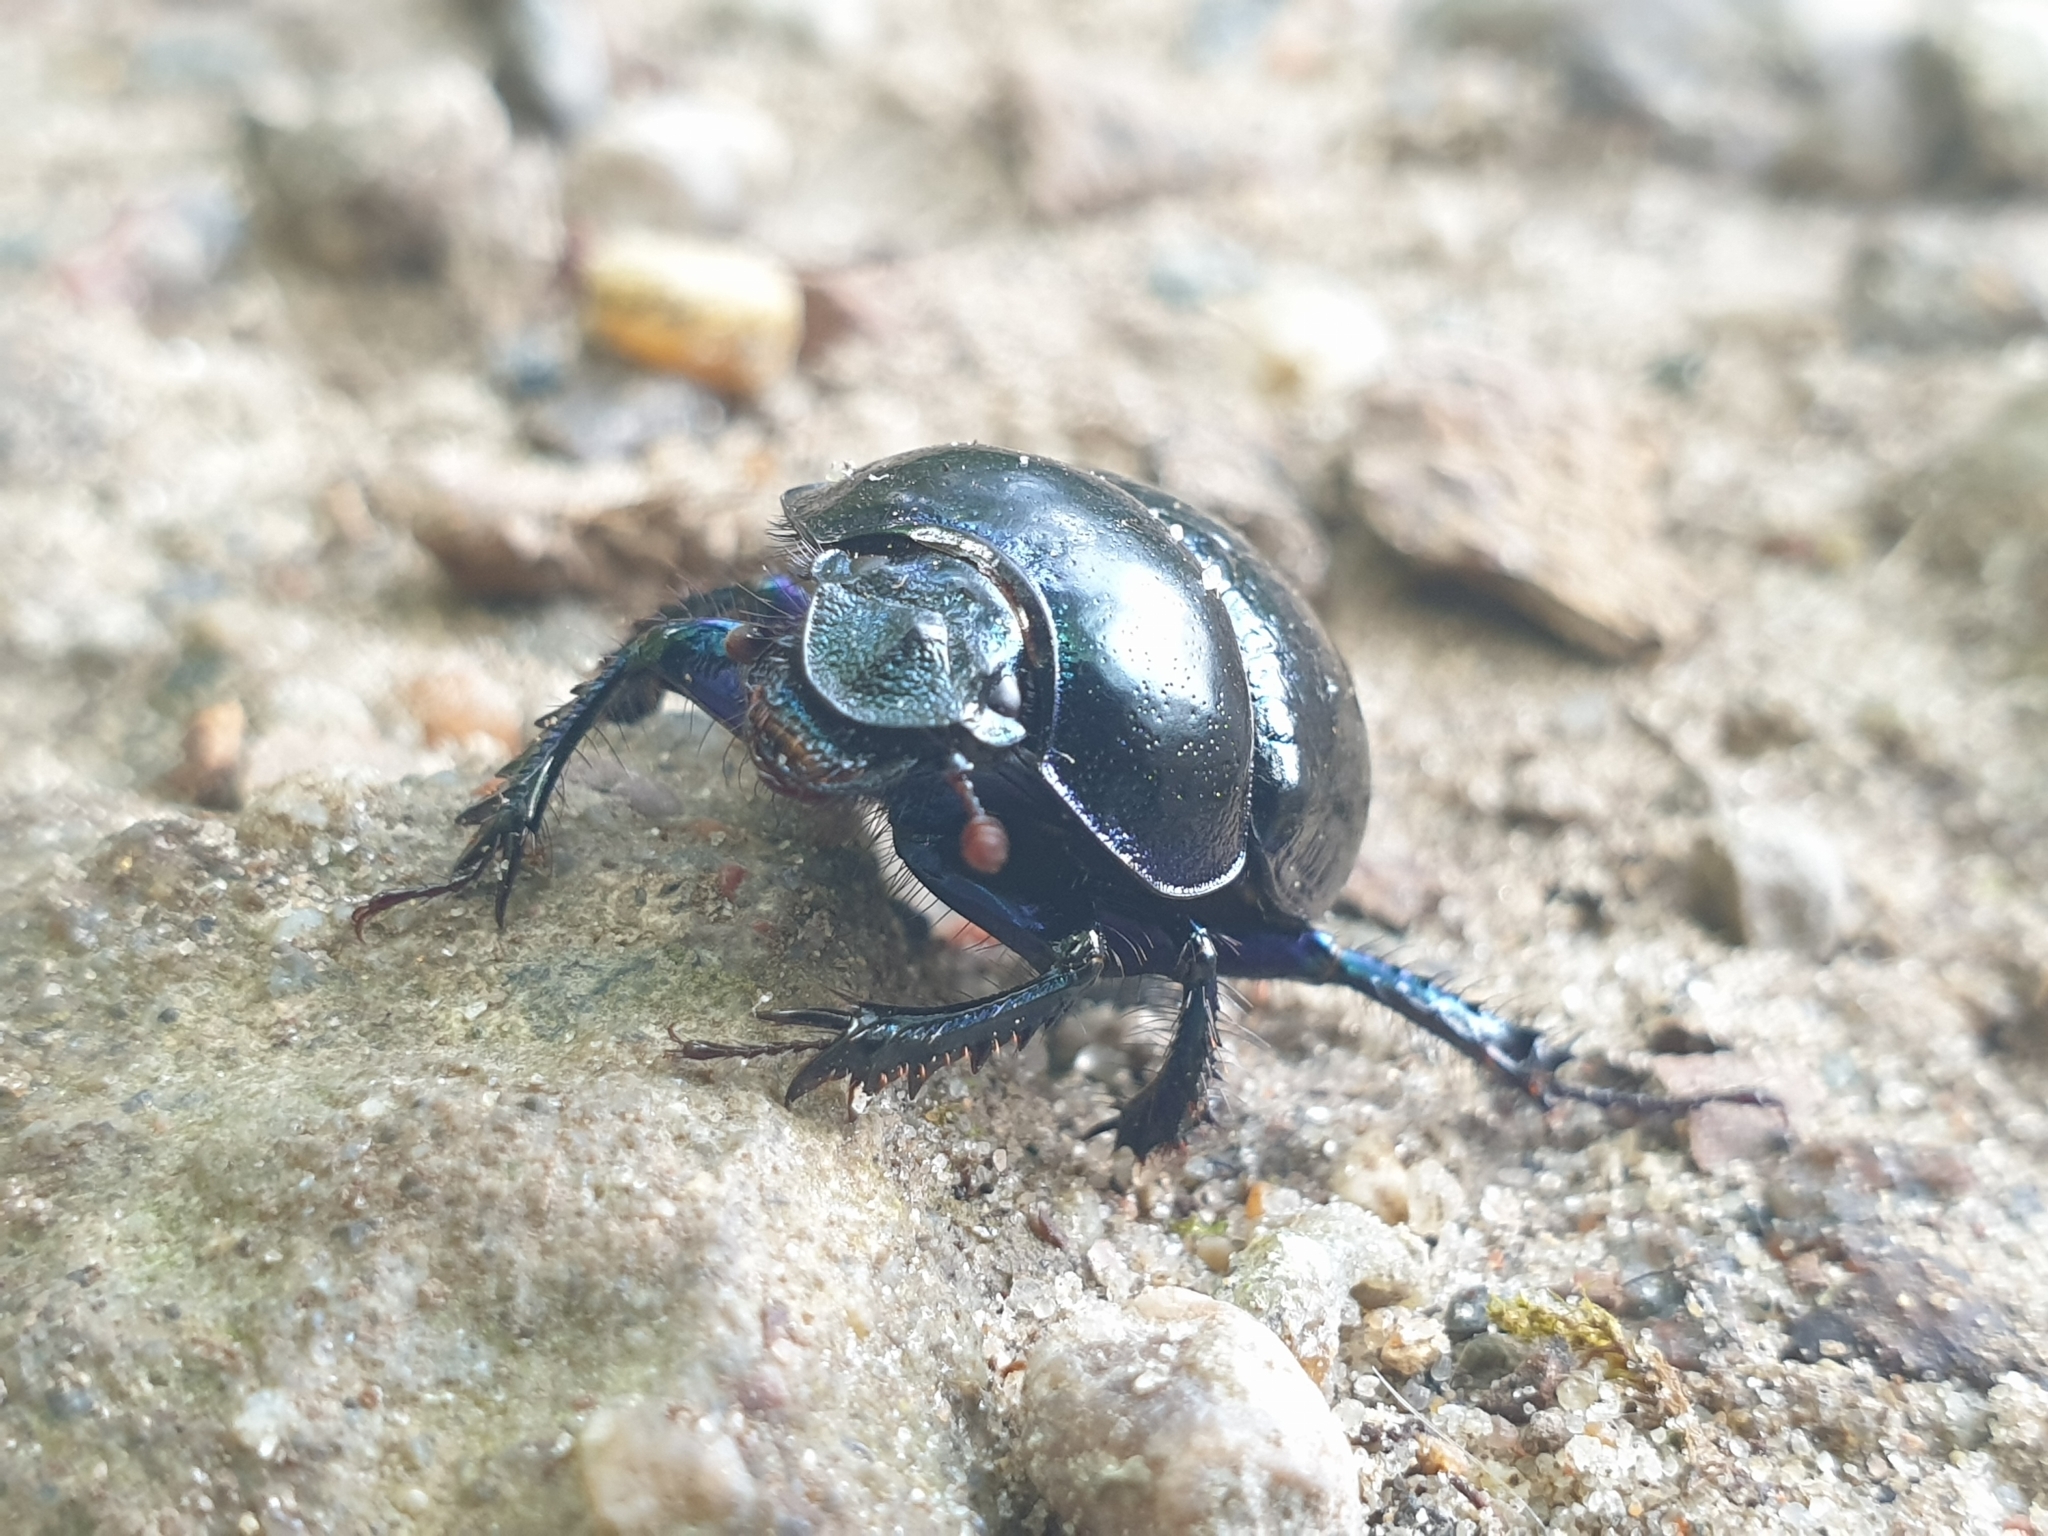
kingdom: Animalia
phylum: Arthropoda
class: Insecta
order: Coleoptera
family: Geotrupidae
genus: Anoplotrupes
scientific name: Anoplotrupes stercorosus
